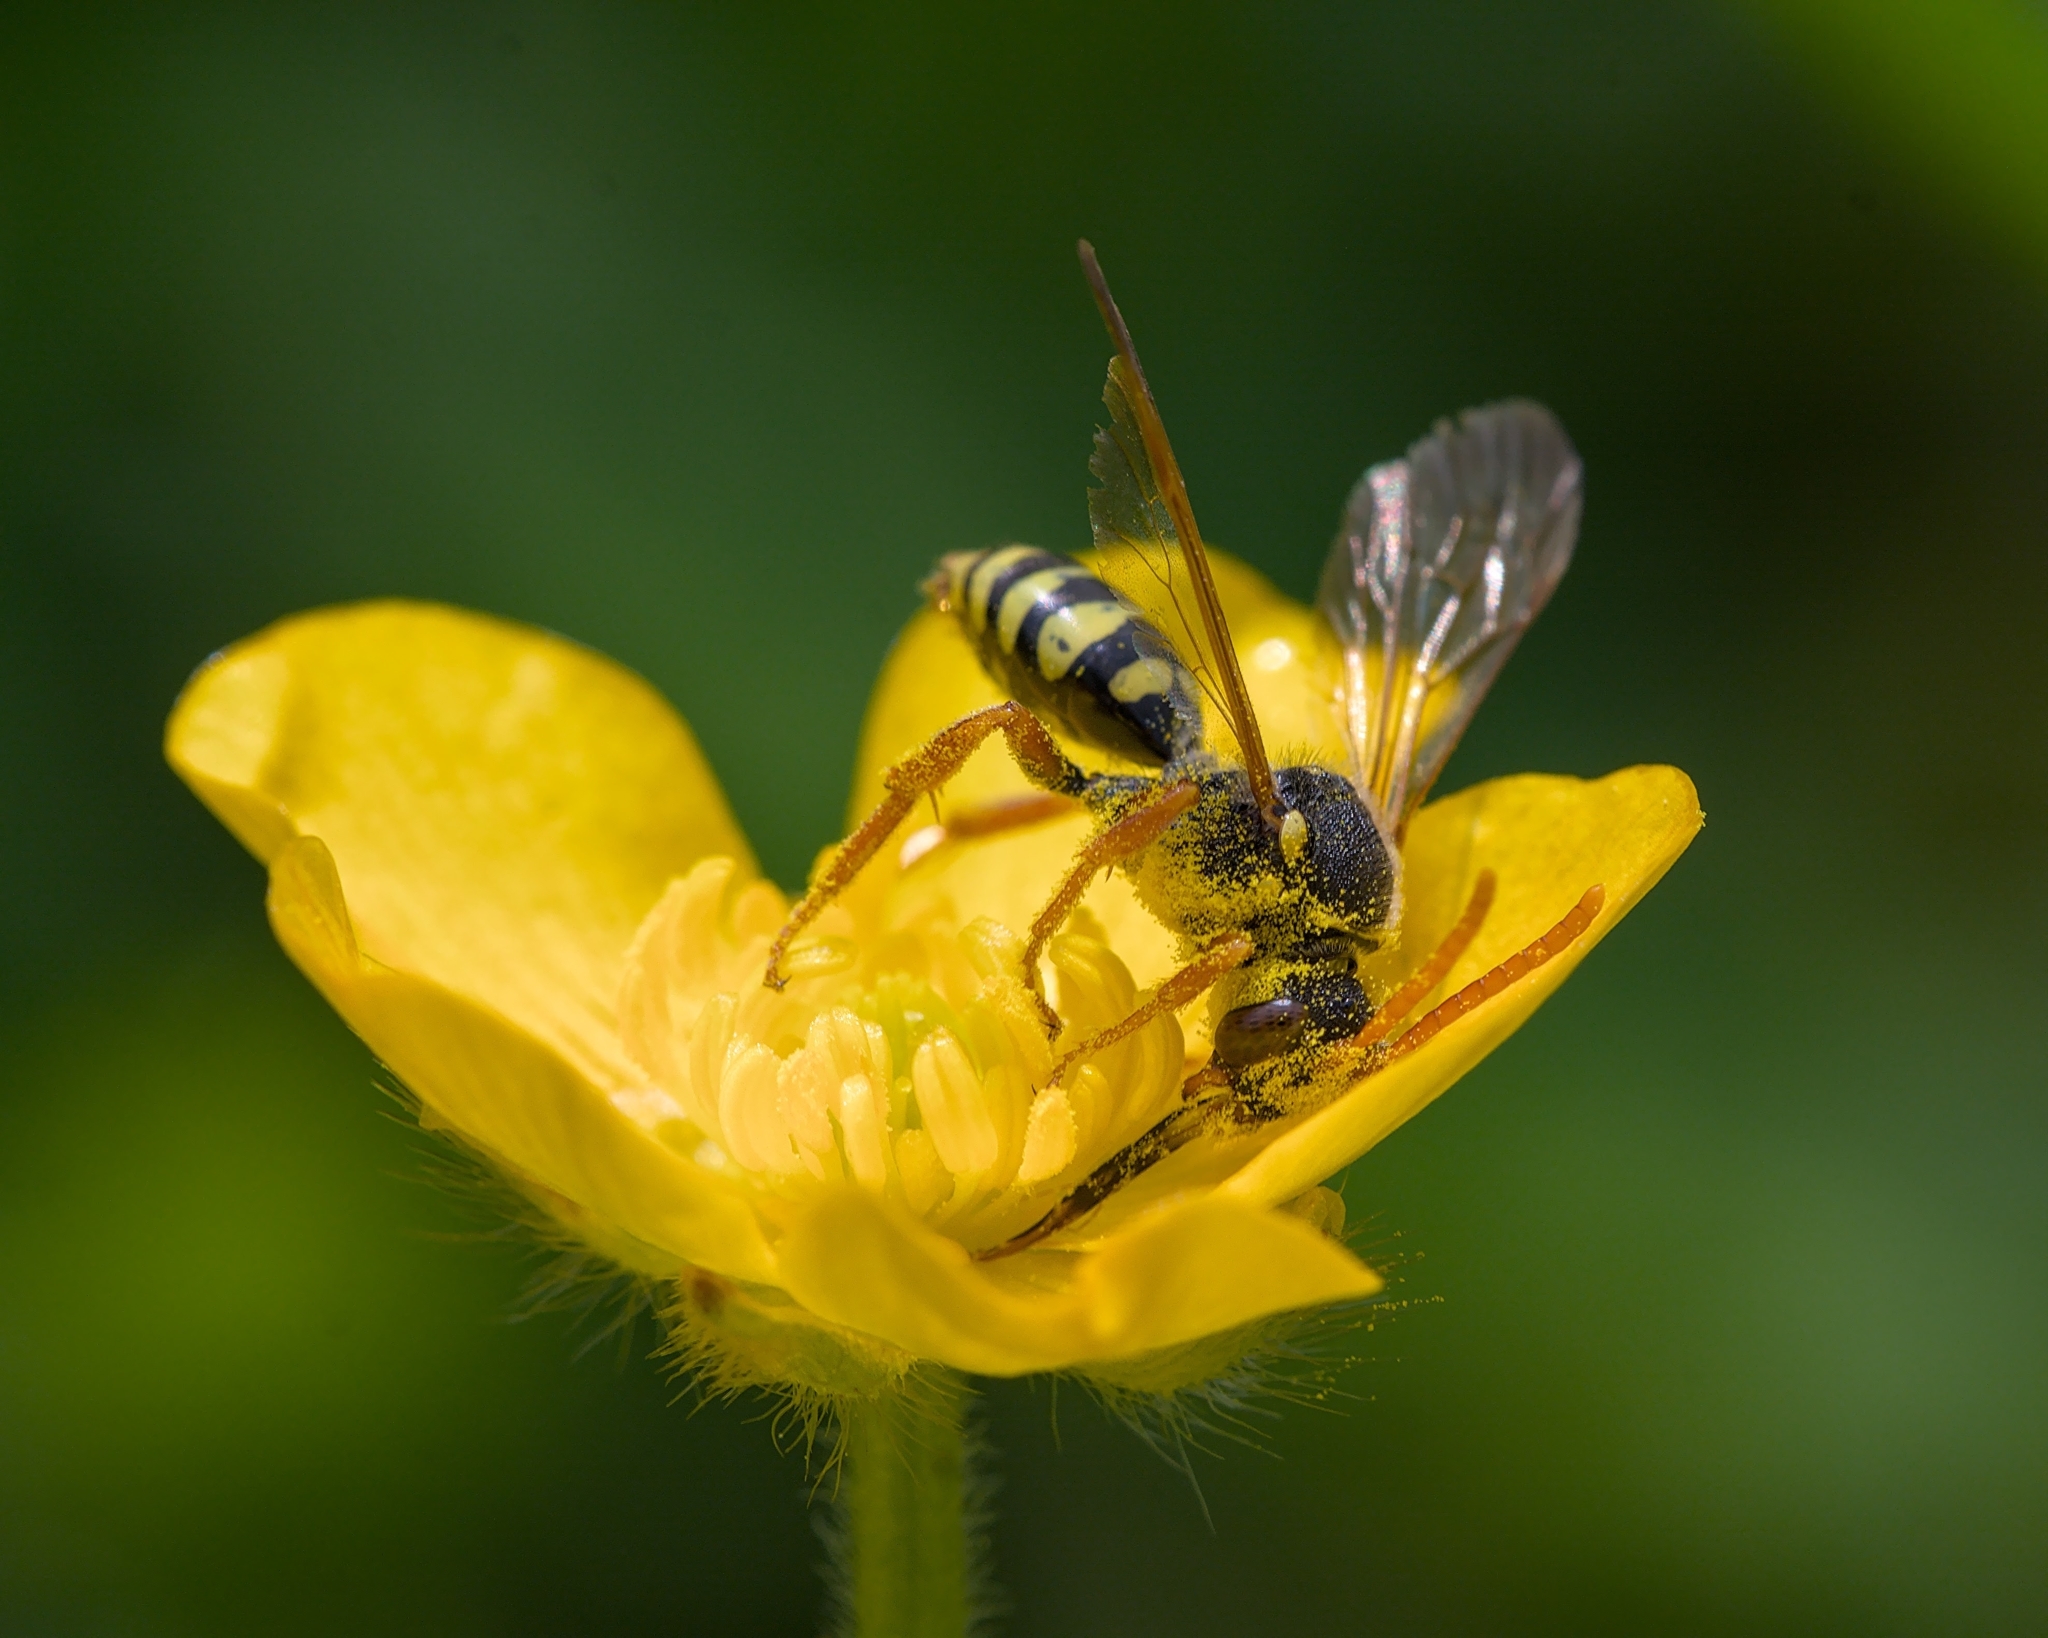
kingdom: Animalia
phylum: Arthropoda
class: Insecta
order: Hymenoptera
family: Apidae
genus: Nomada
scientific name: Nomada goodeniana
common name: Gooden's nomad bee
